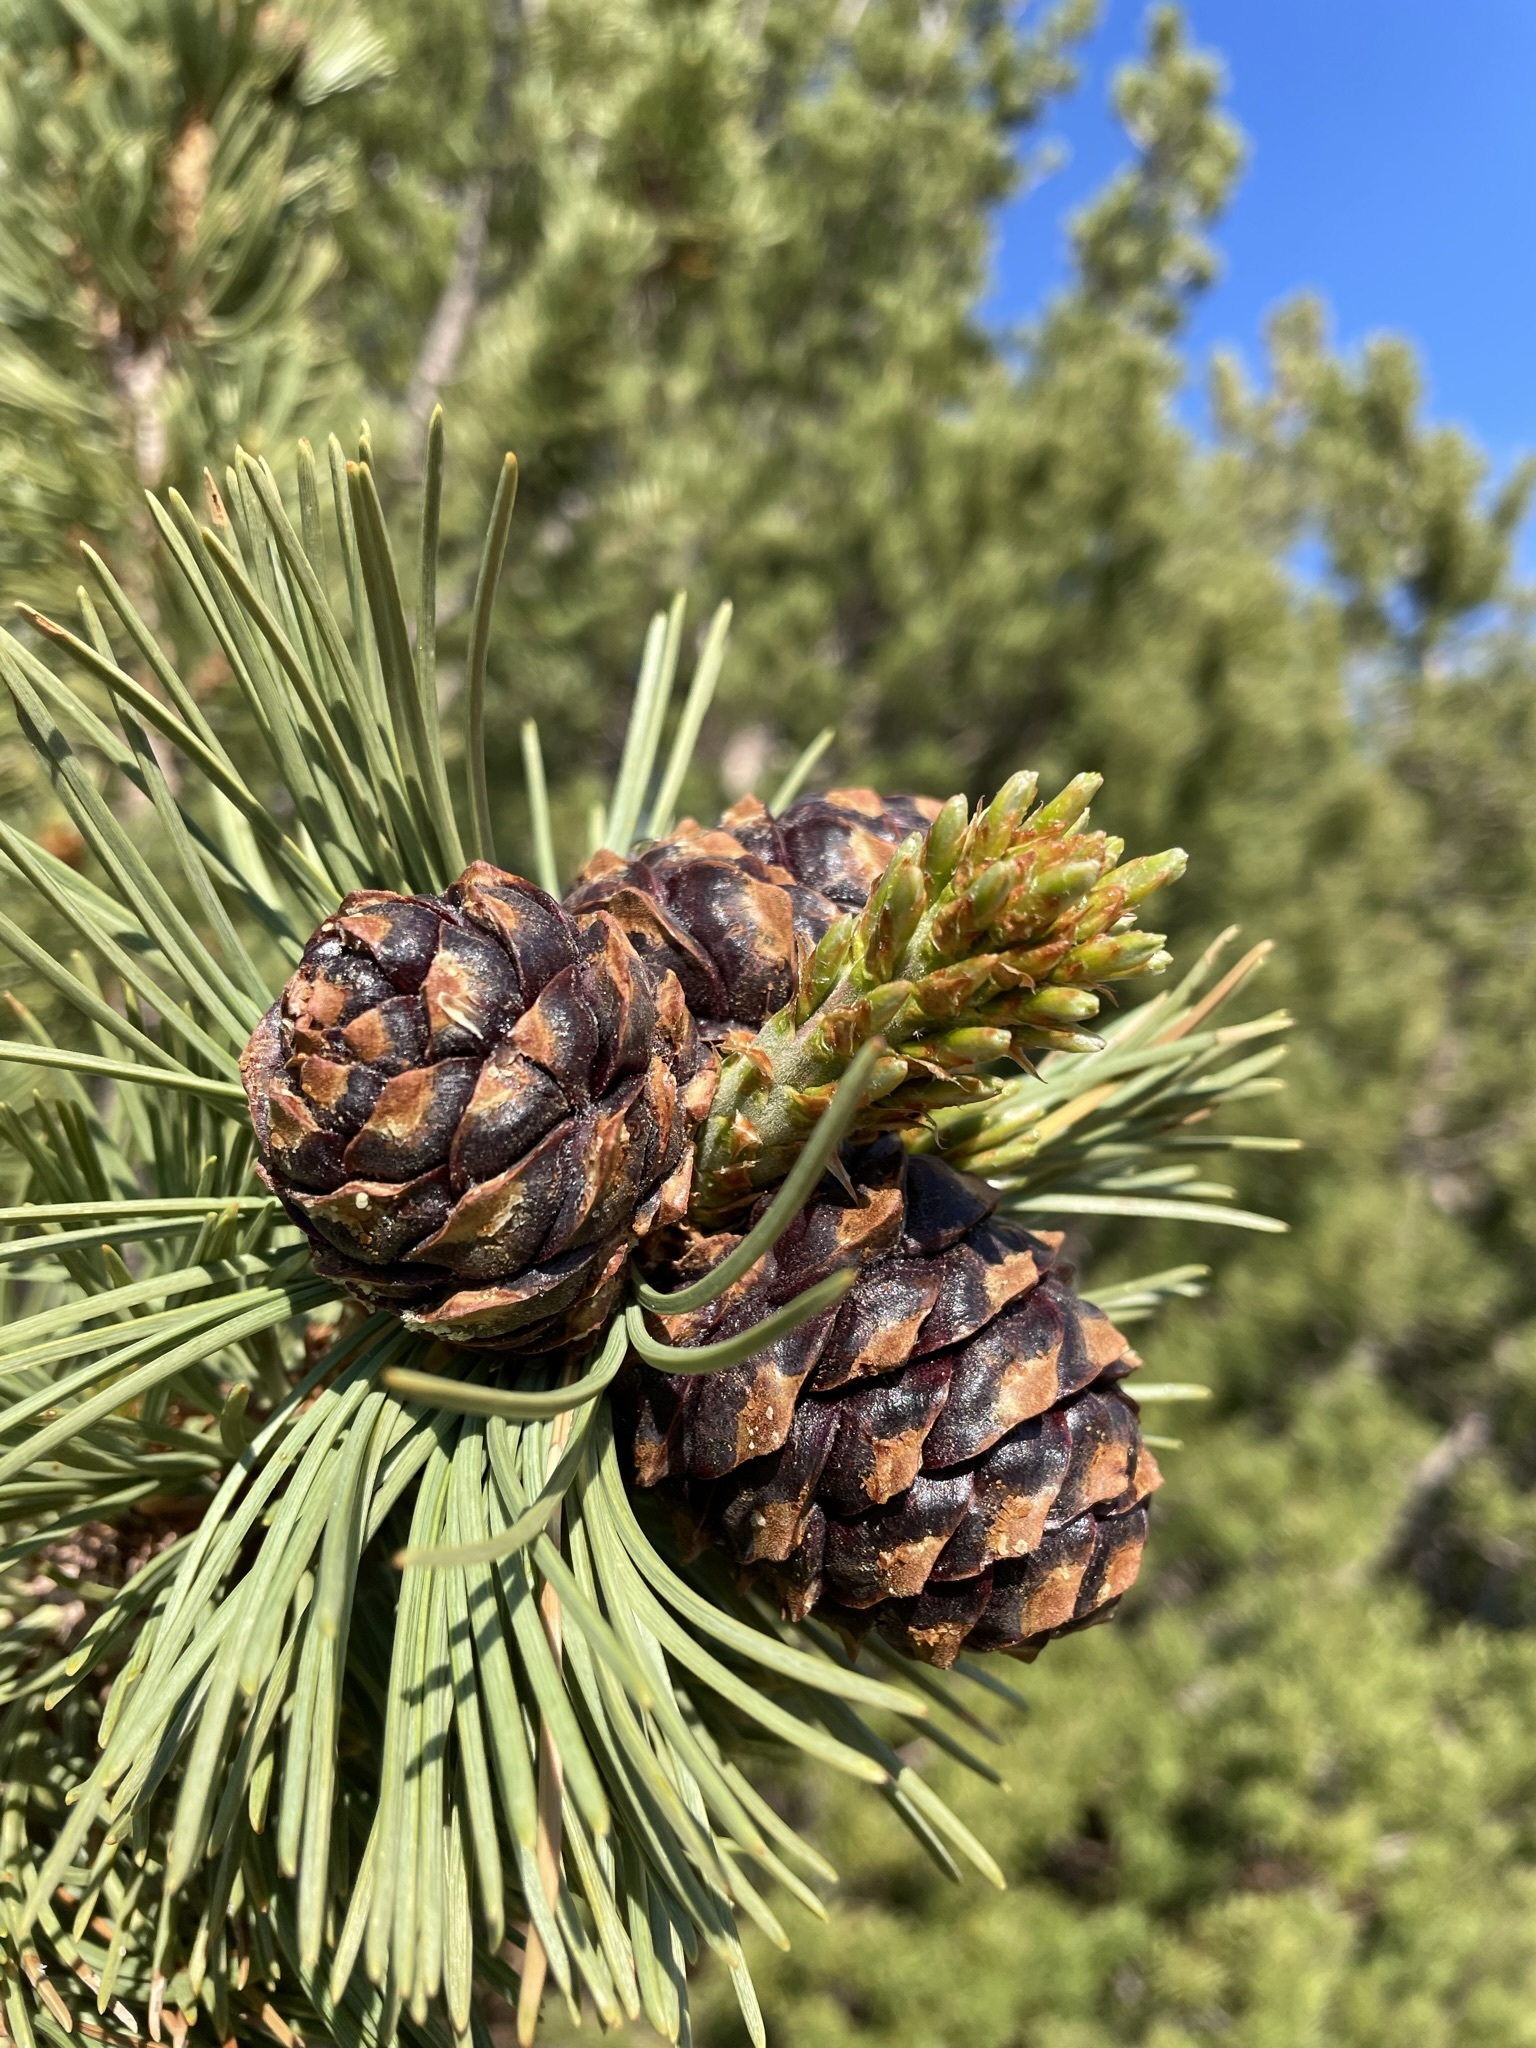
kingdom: Plantae
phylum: Tracheophyta
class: Pinopsida
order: Pinales
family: Pinaceae
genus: Pinus
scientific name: Pinus albicaulis
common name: Whitebark pine
